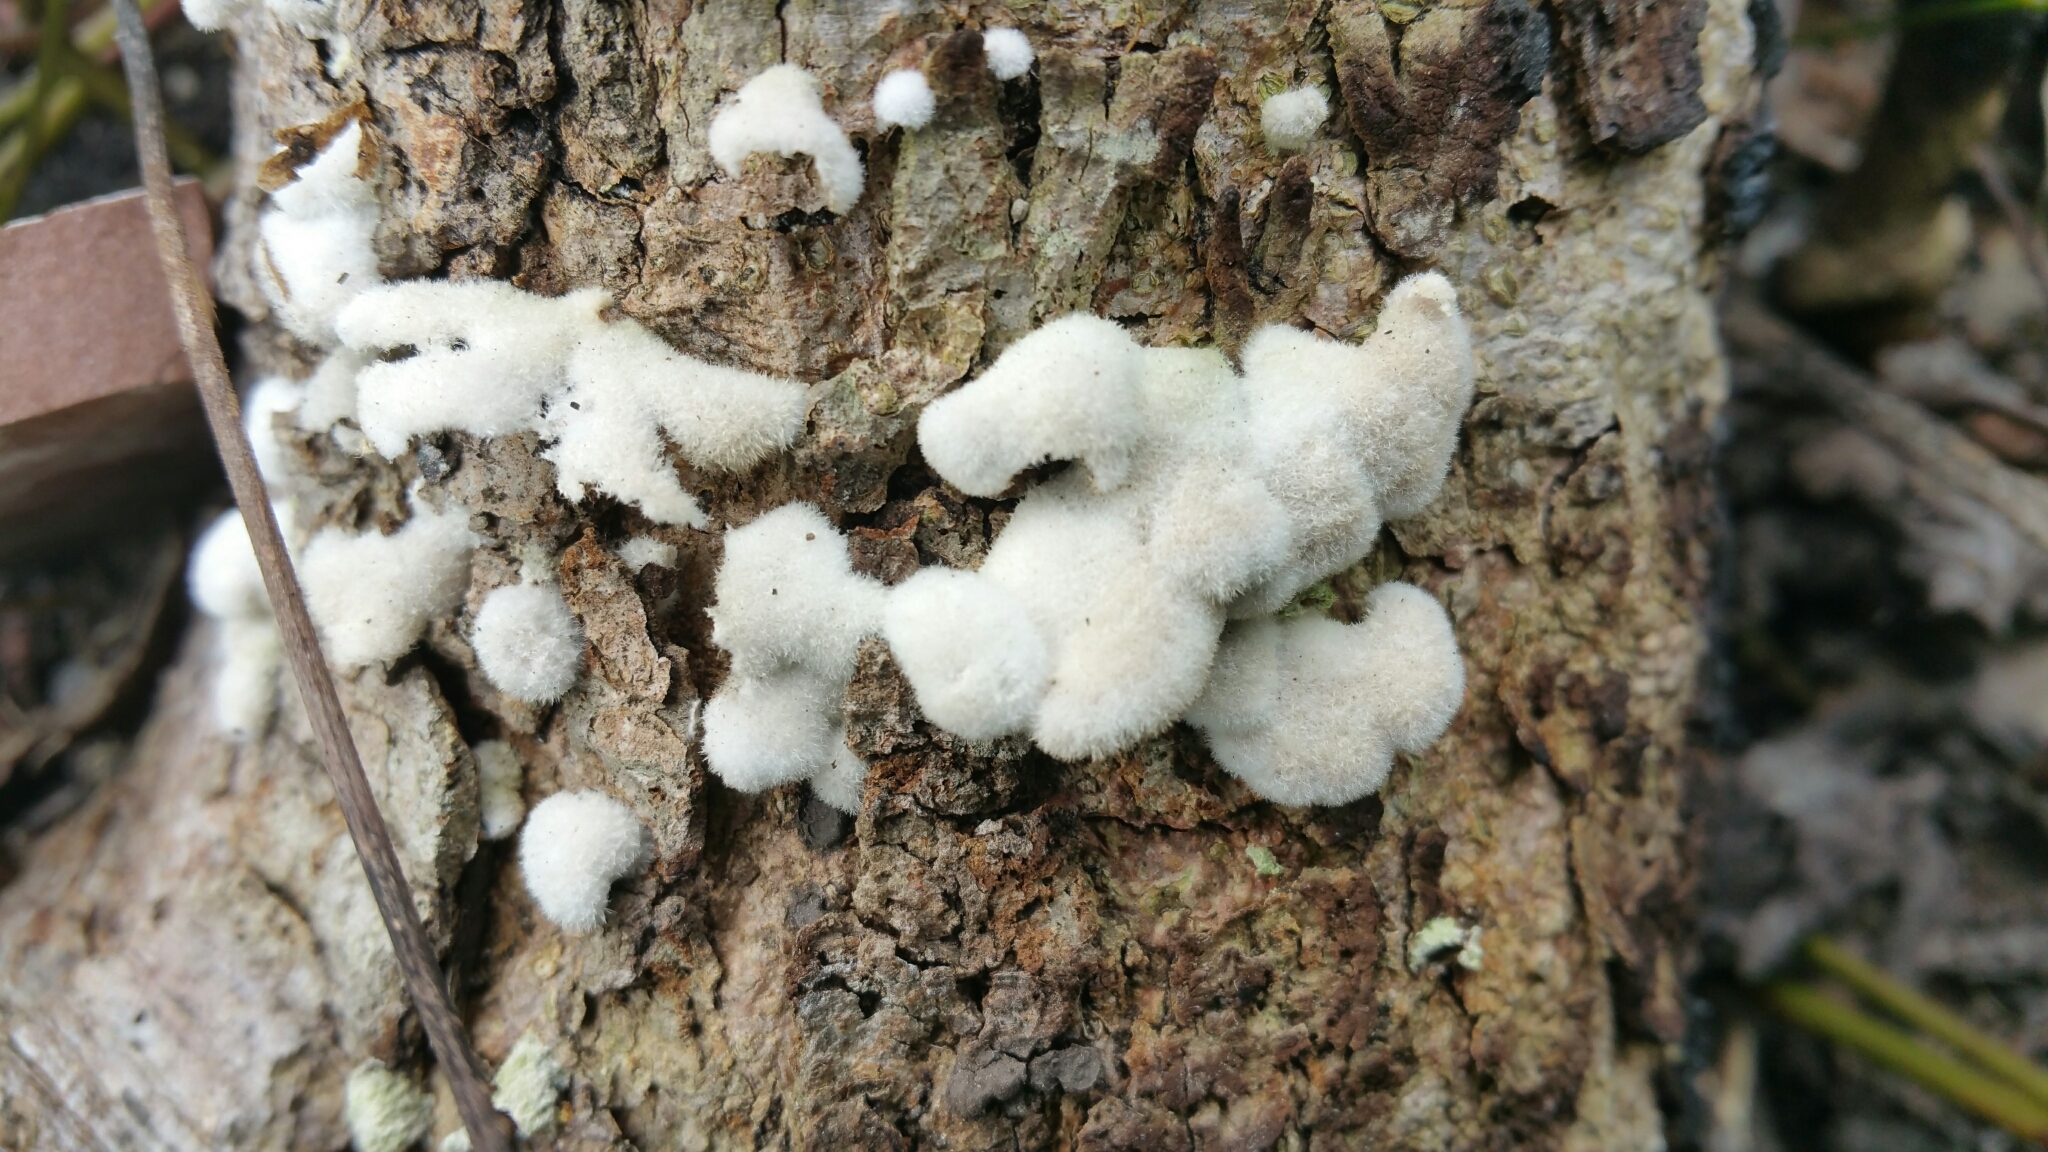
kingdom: Fungi
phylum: Basidiomycota
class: Agaricomycetes
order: Agaricales
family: Schizophyllaceae
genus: Schizophyllum
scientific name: Schizophyllum commune
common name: Common porecrust
